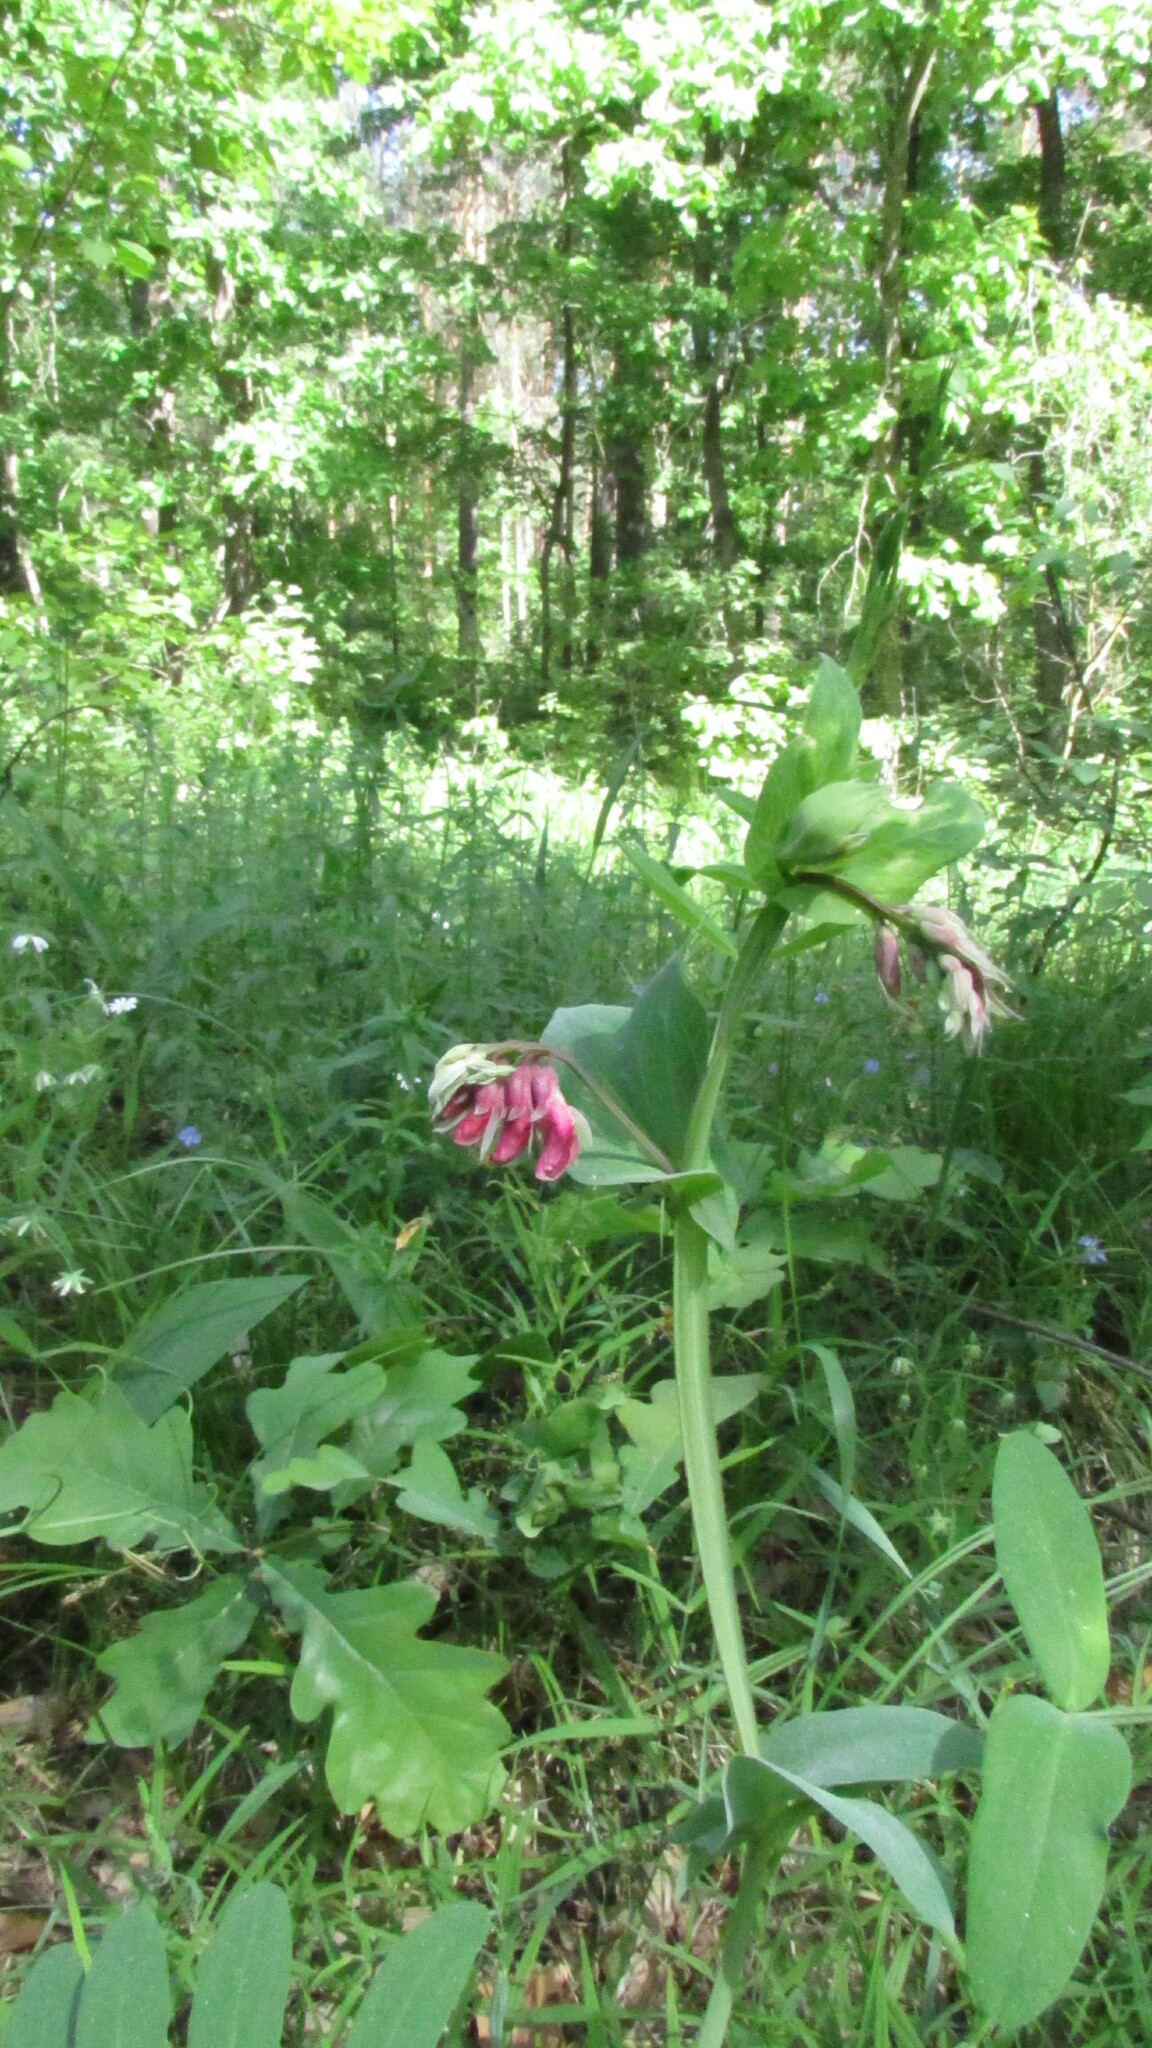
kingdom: Plantae
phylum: Tracheophyta
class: Magnoliopsida
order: Fabales
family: Fabaceae
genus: Lathyrus
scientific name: Lathyrus pisiformis
